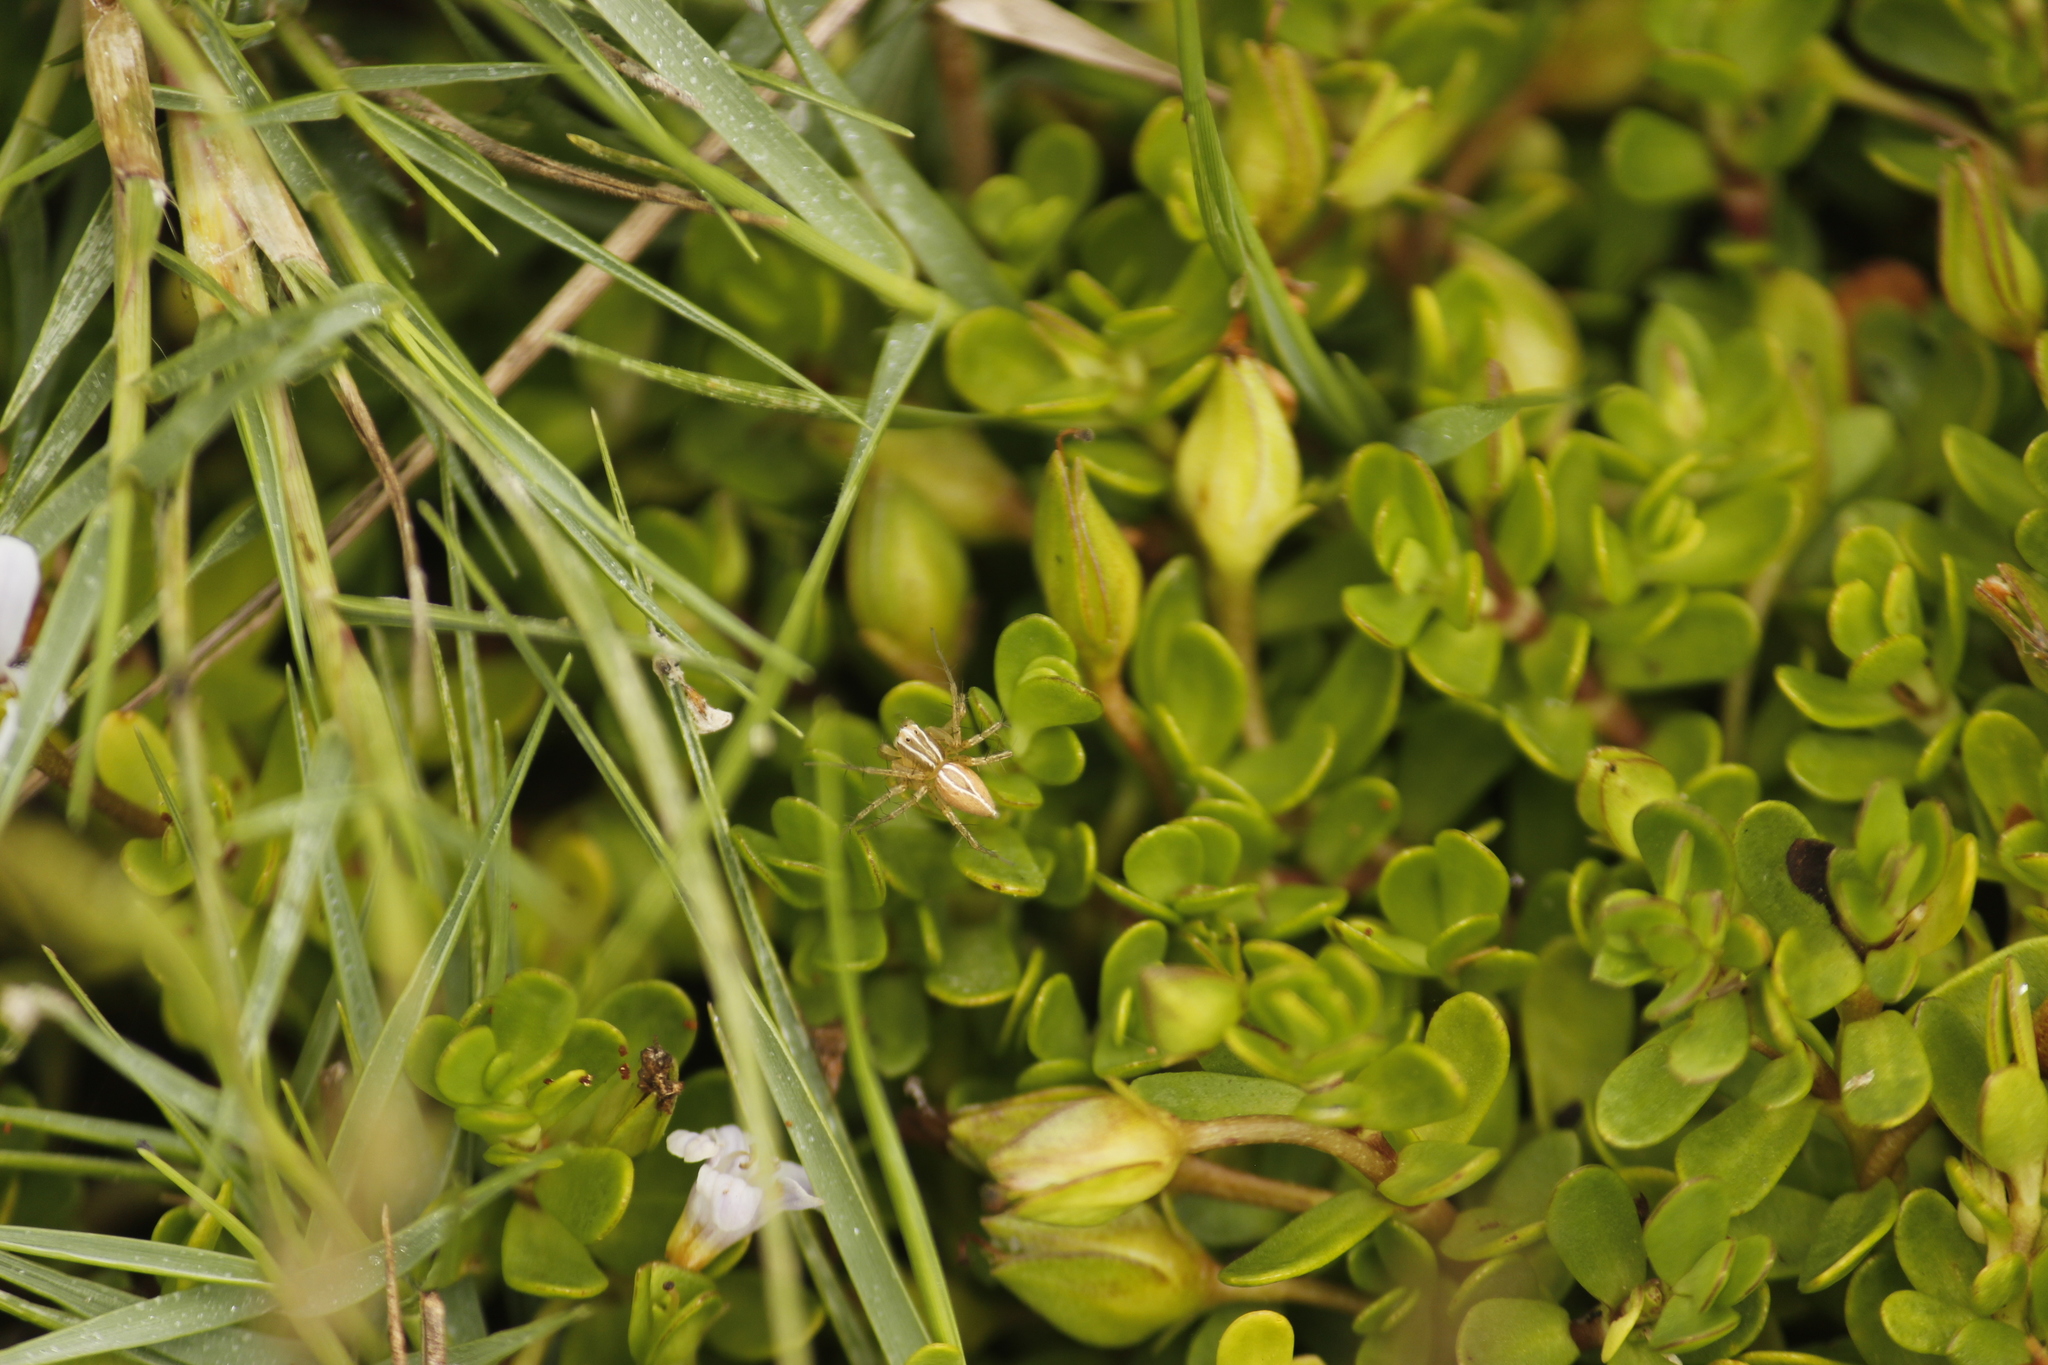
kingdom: Animalia
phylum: Arthropoda
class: Arachnida
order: Araneae
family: Oxyopidae
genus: Oxyopes
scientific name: Oxyopes salticus
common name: Lynx spiders
